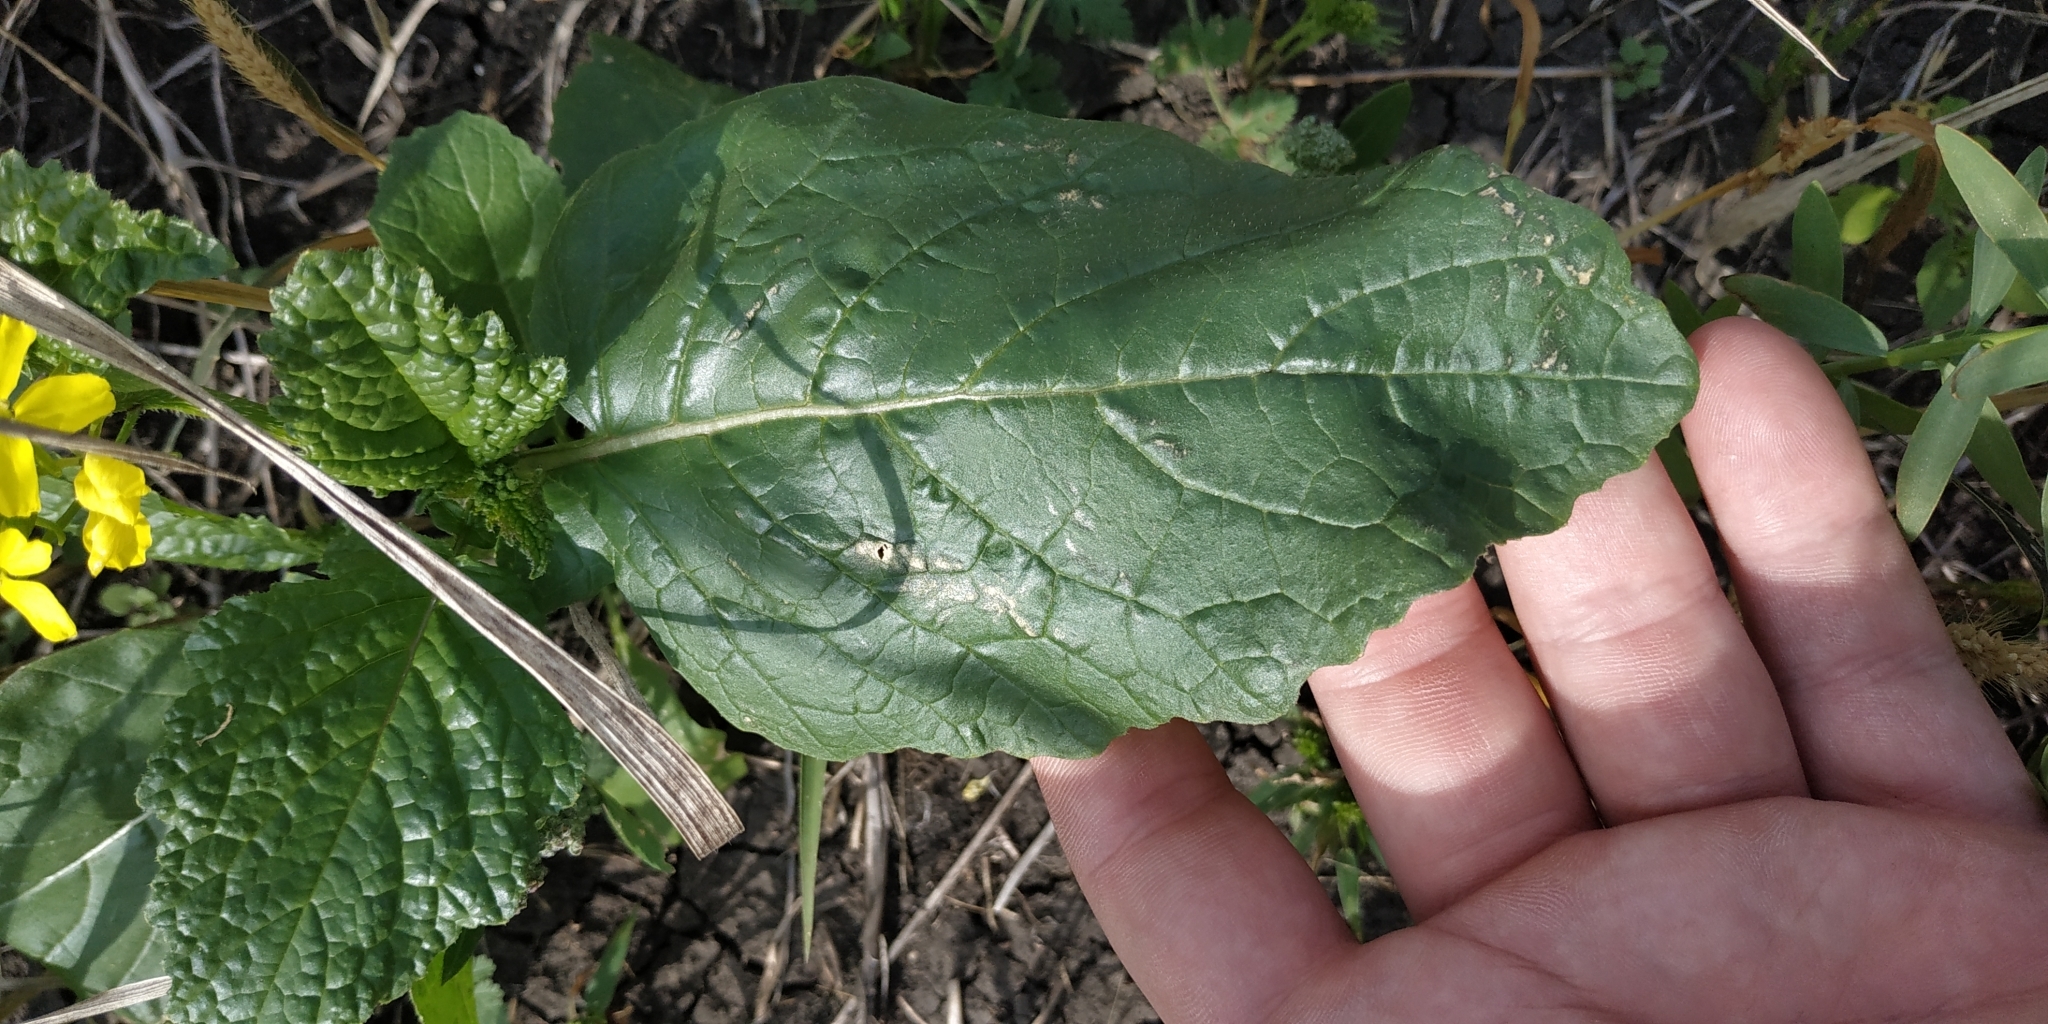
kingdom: Plantae
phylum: Tracheophyta
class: Magnoliopsida
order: Brassicales
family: Brassicaceae
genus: Sinapis
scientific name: Sinapis arvensis
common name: Charlock
